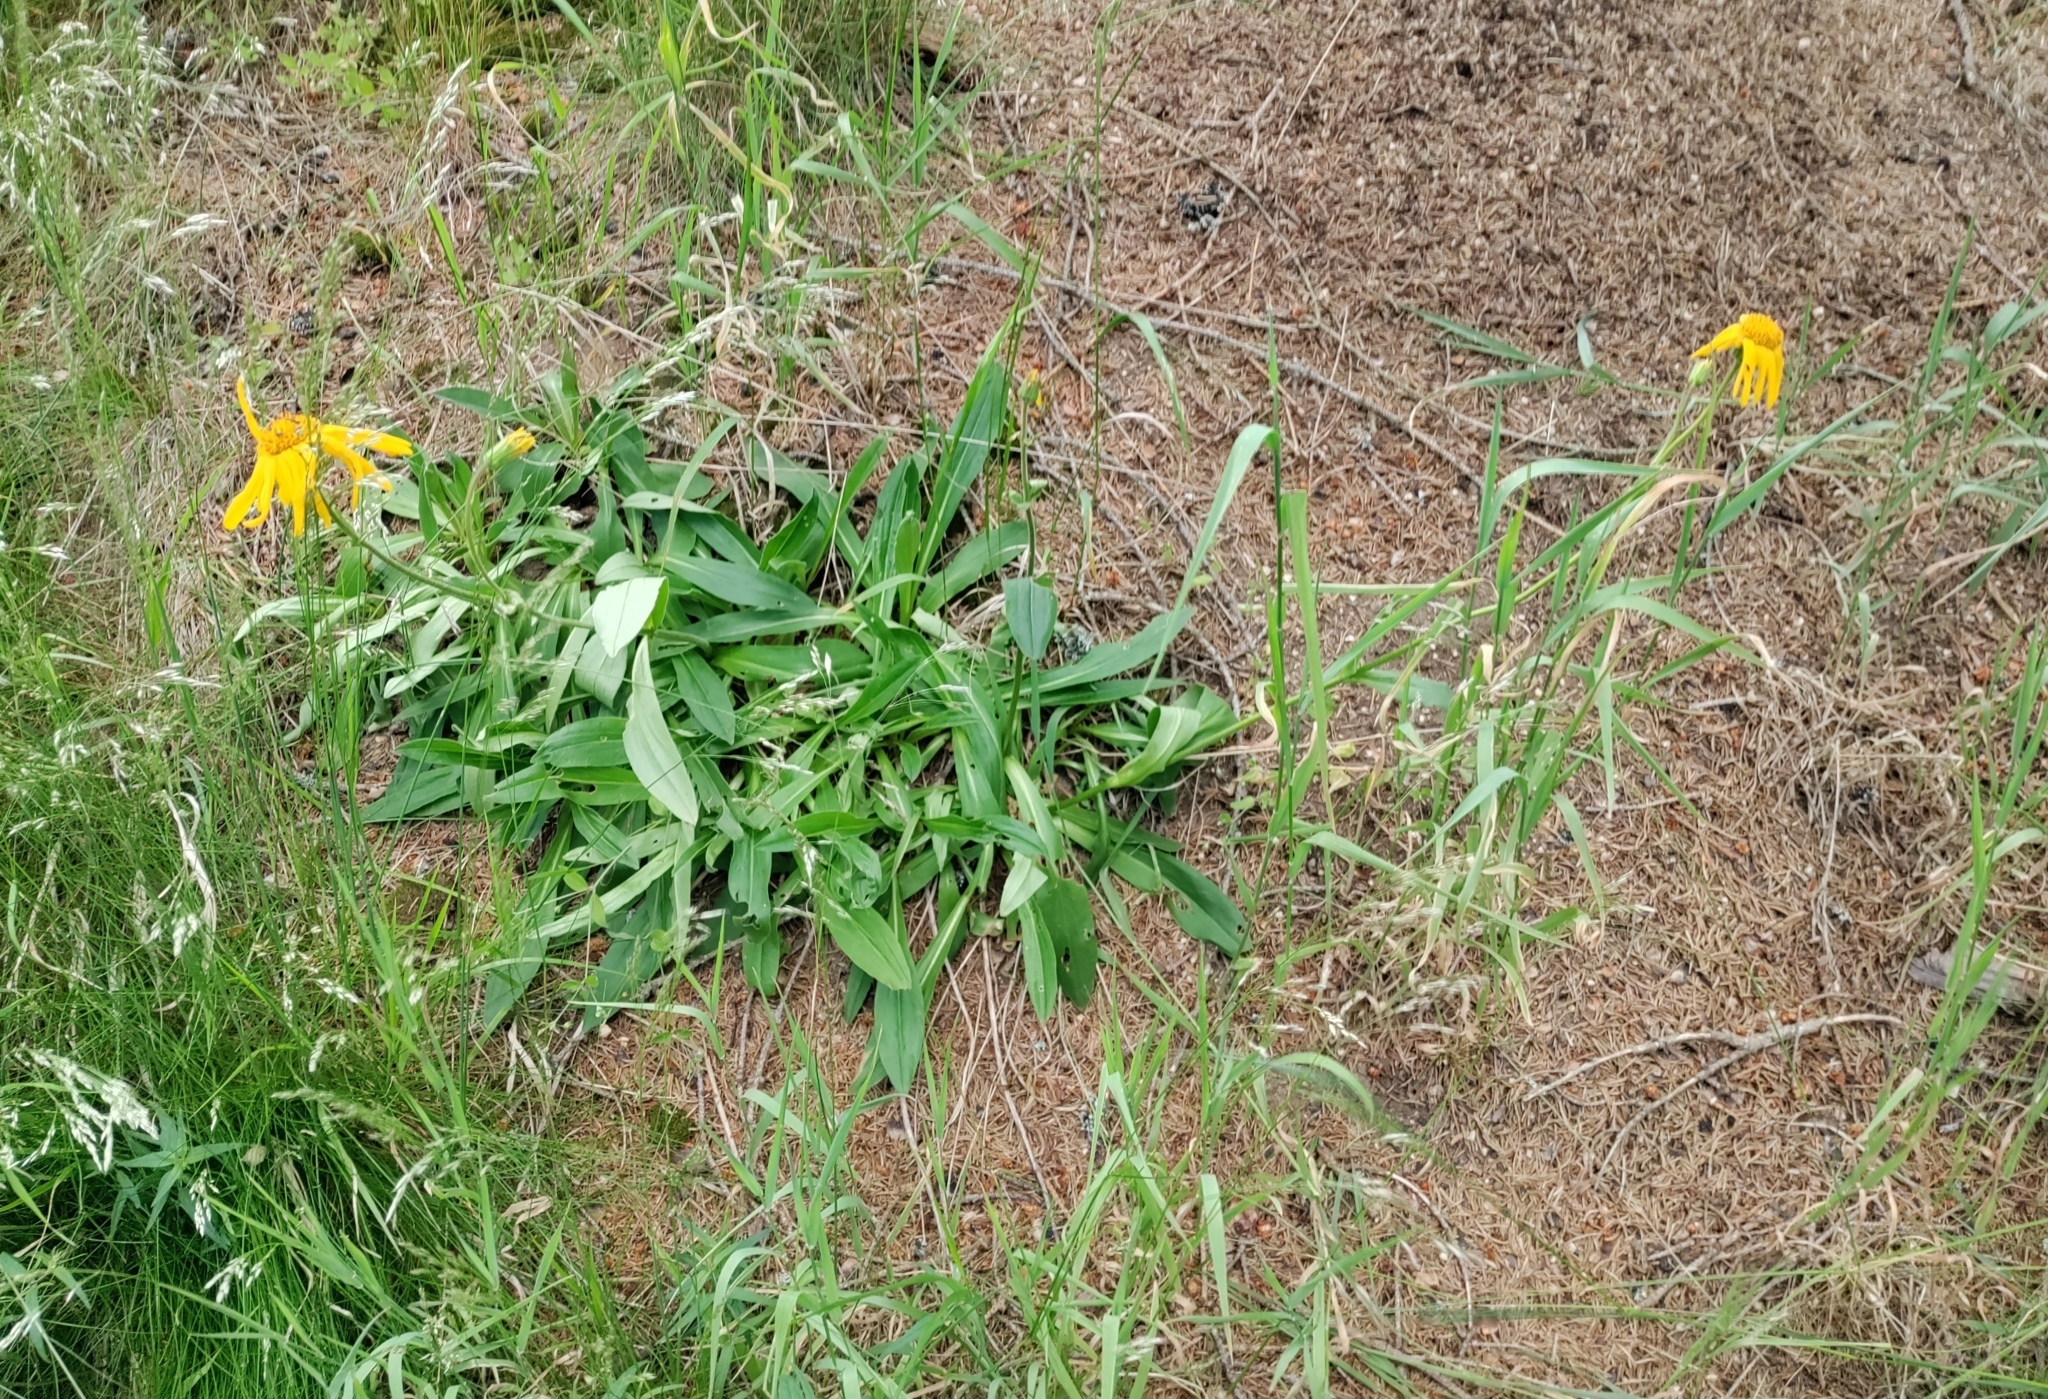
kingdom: Plantae
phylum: Tracheophyta
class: Magnoliopsida
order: Asterales
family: Asteraceae
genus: Arnica
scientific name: Arnica montana
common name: Leopard's bane
